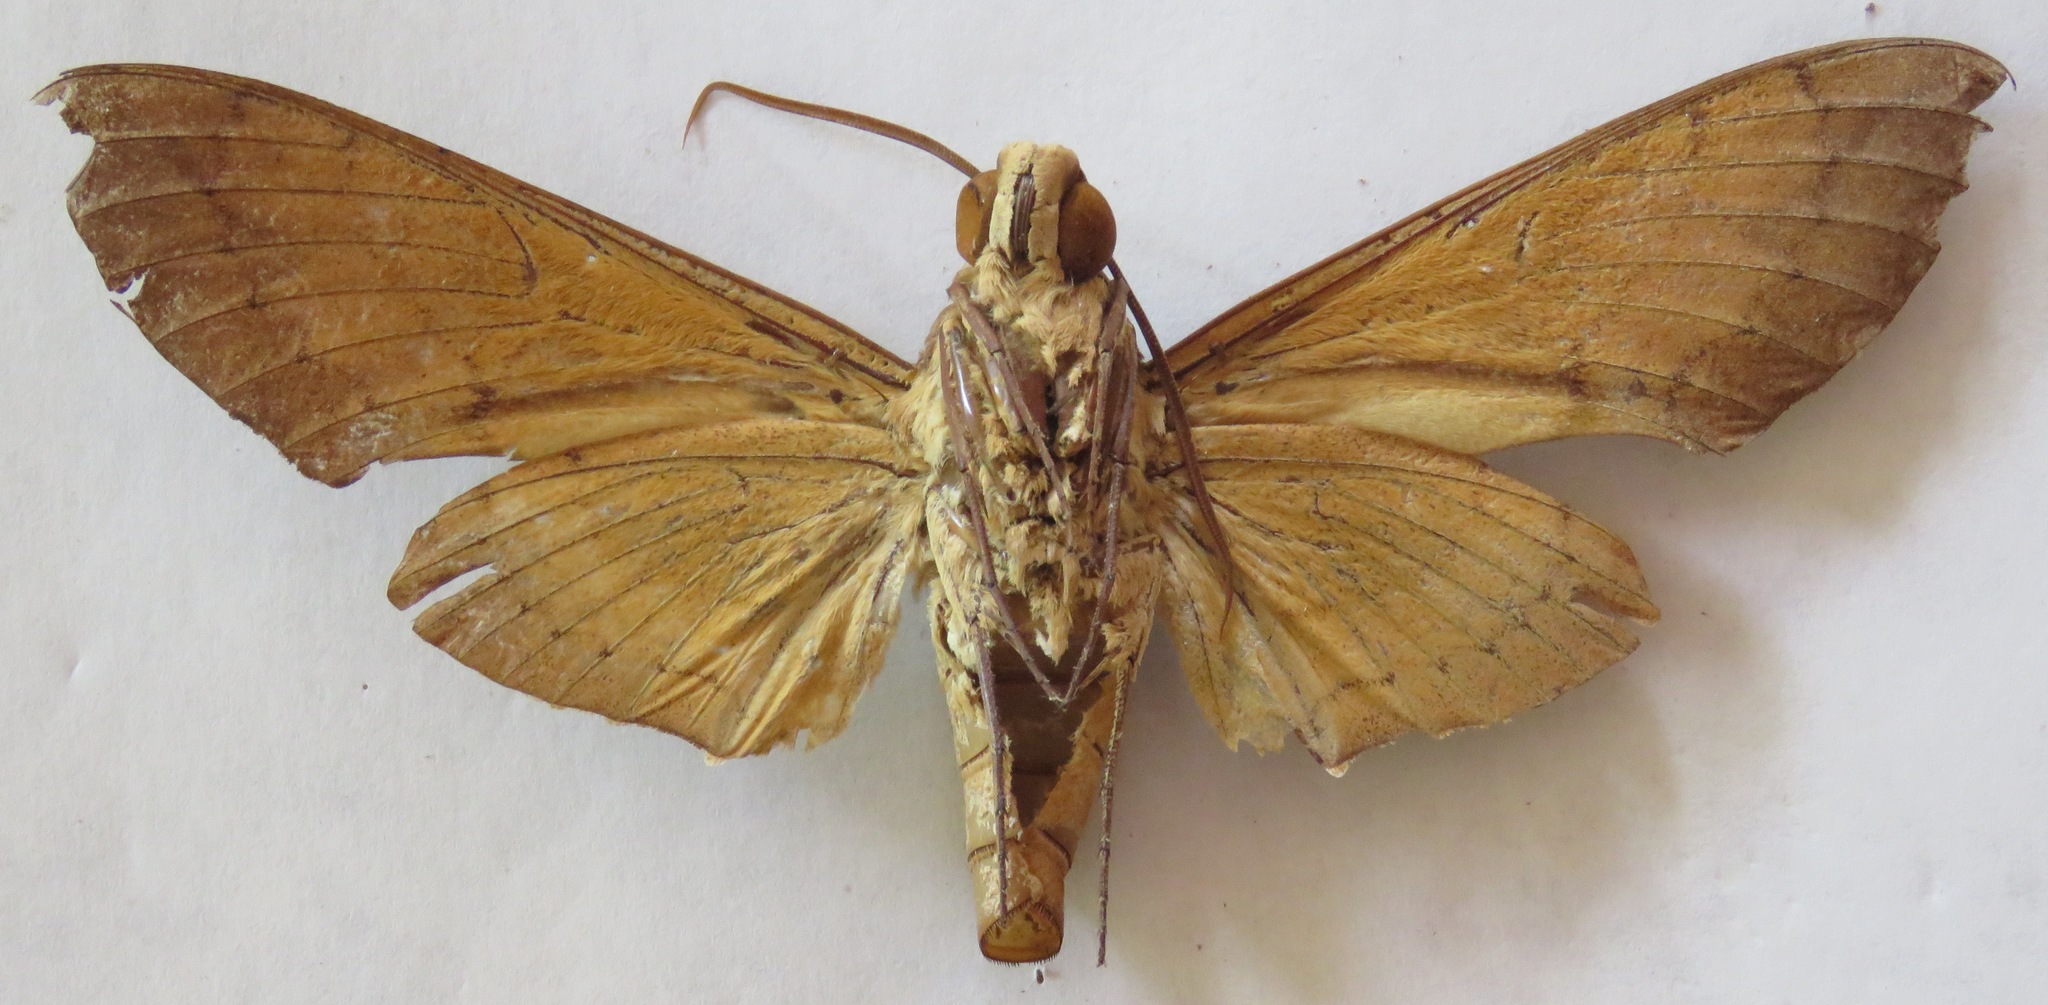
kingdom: Animalia
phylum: Arthropoda
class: Insecta
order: Lepidoptera
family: Sphingidae
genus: Pachylia
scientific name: Pachylia ficus
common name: Fig sphinx
